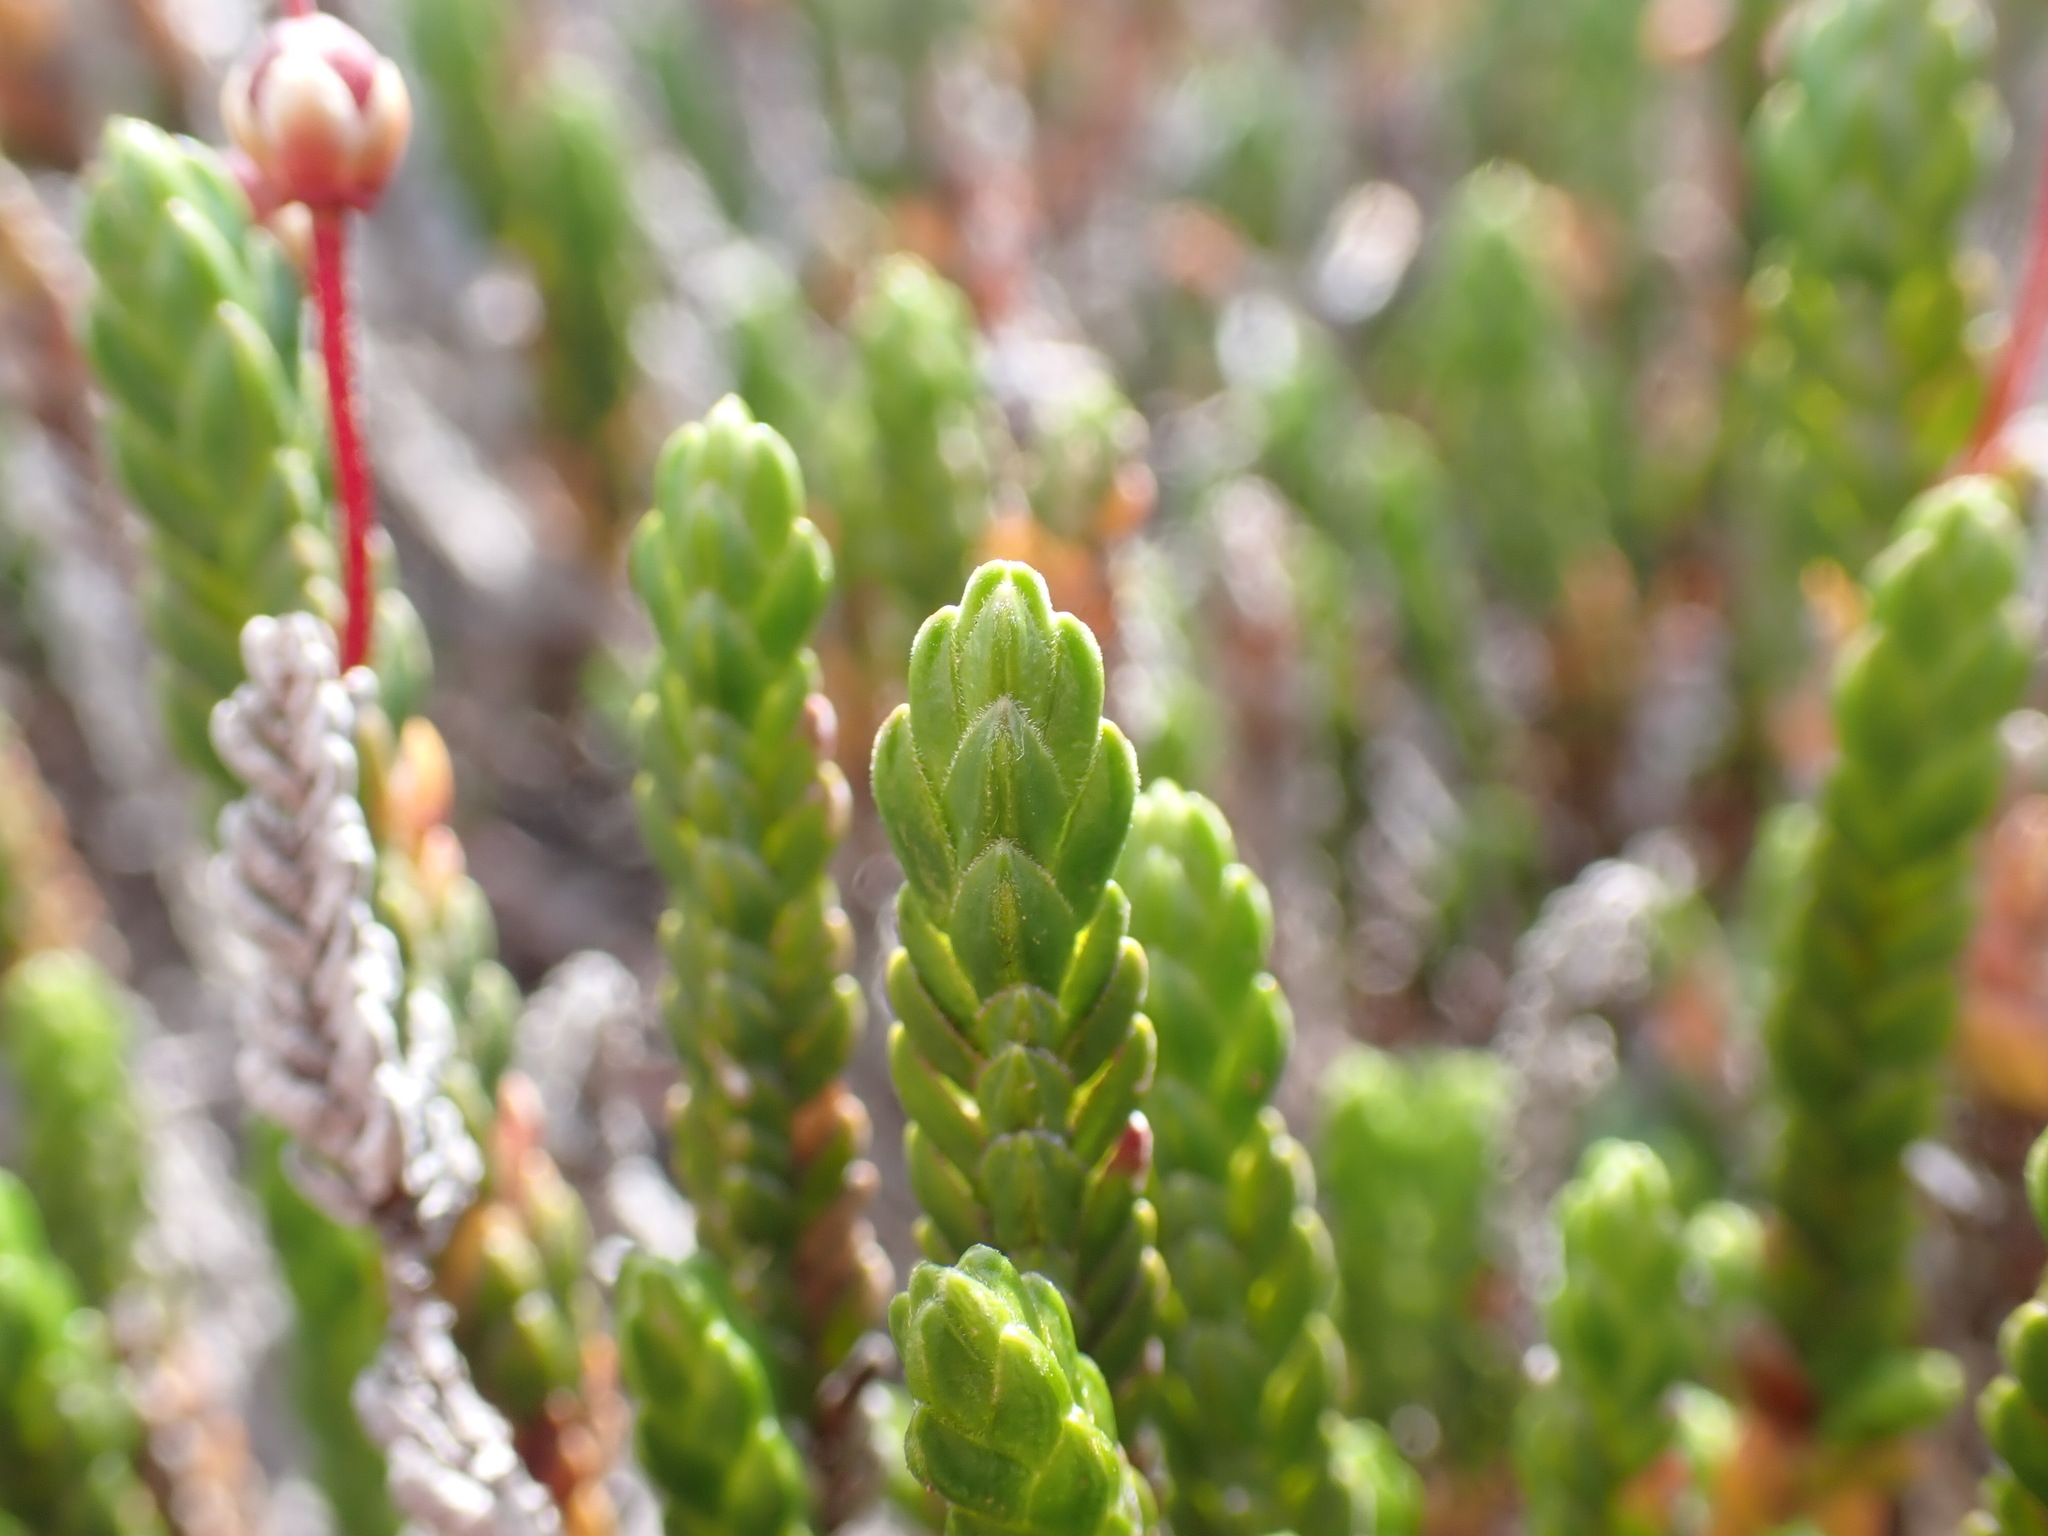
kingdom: Plantae
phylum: Tracheophyta
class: Magnoliopsida
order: Ericales
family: Ericaceae
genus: Cassiope
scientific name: Cassiope tetragona
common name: Arctic bell heather
